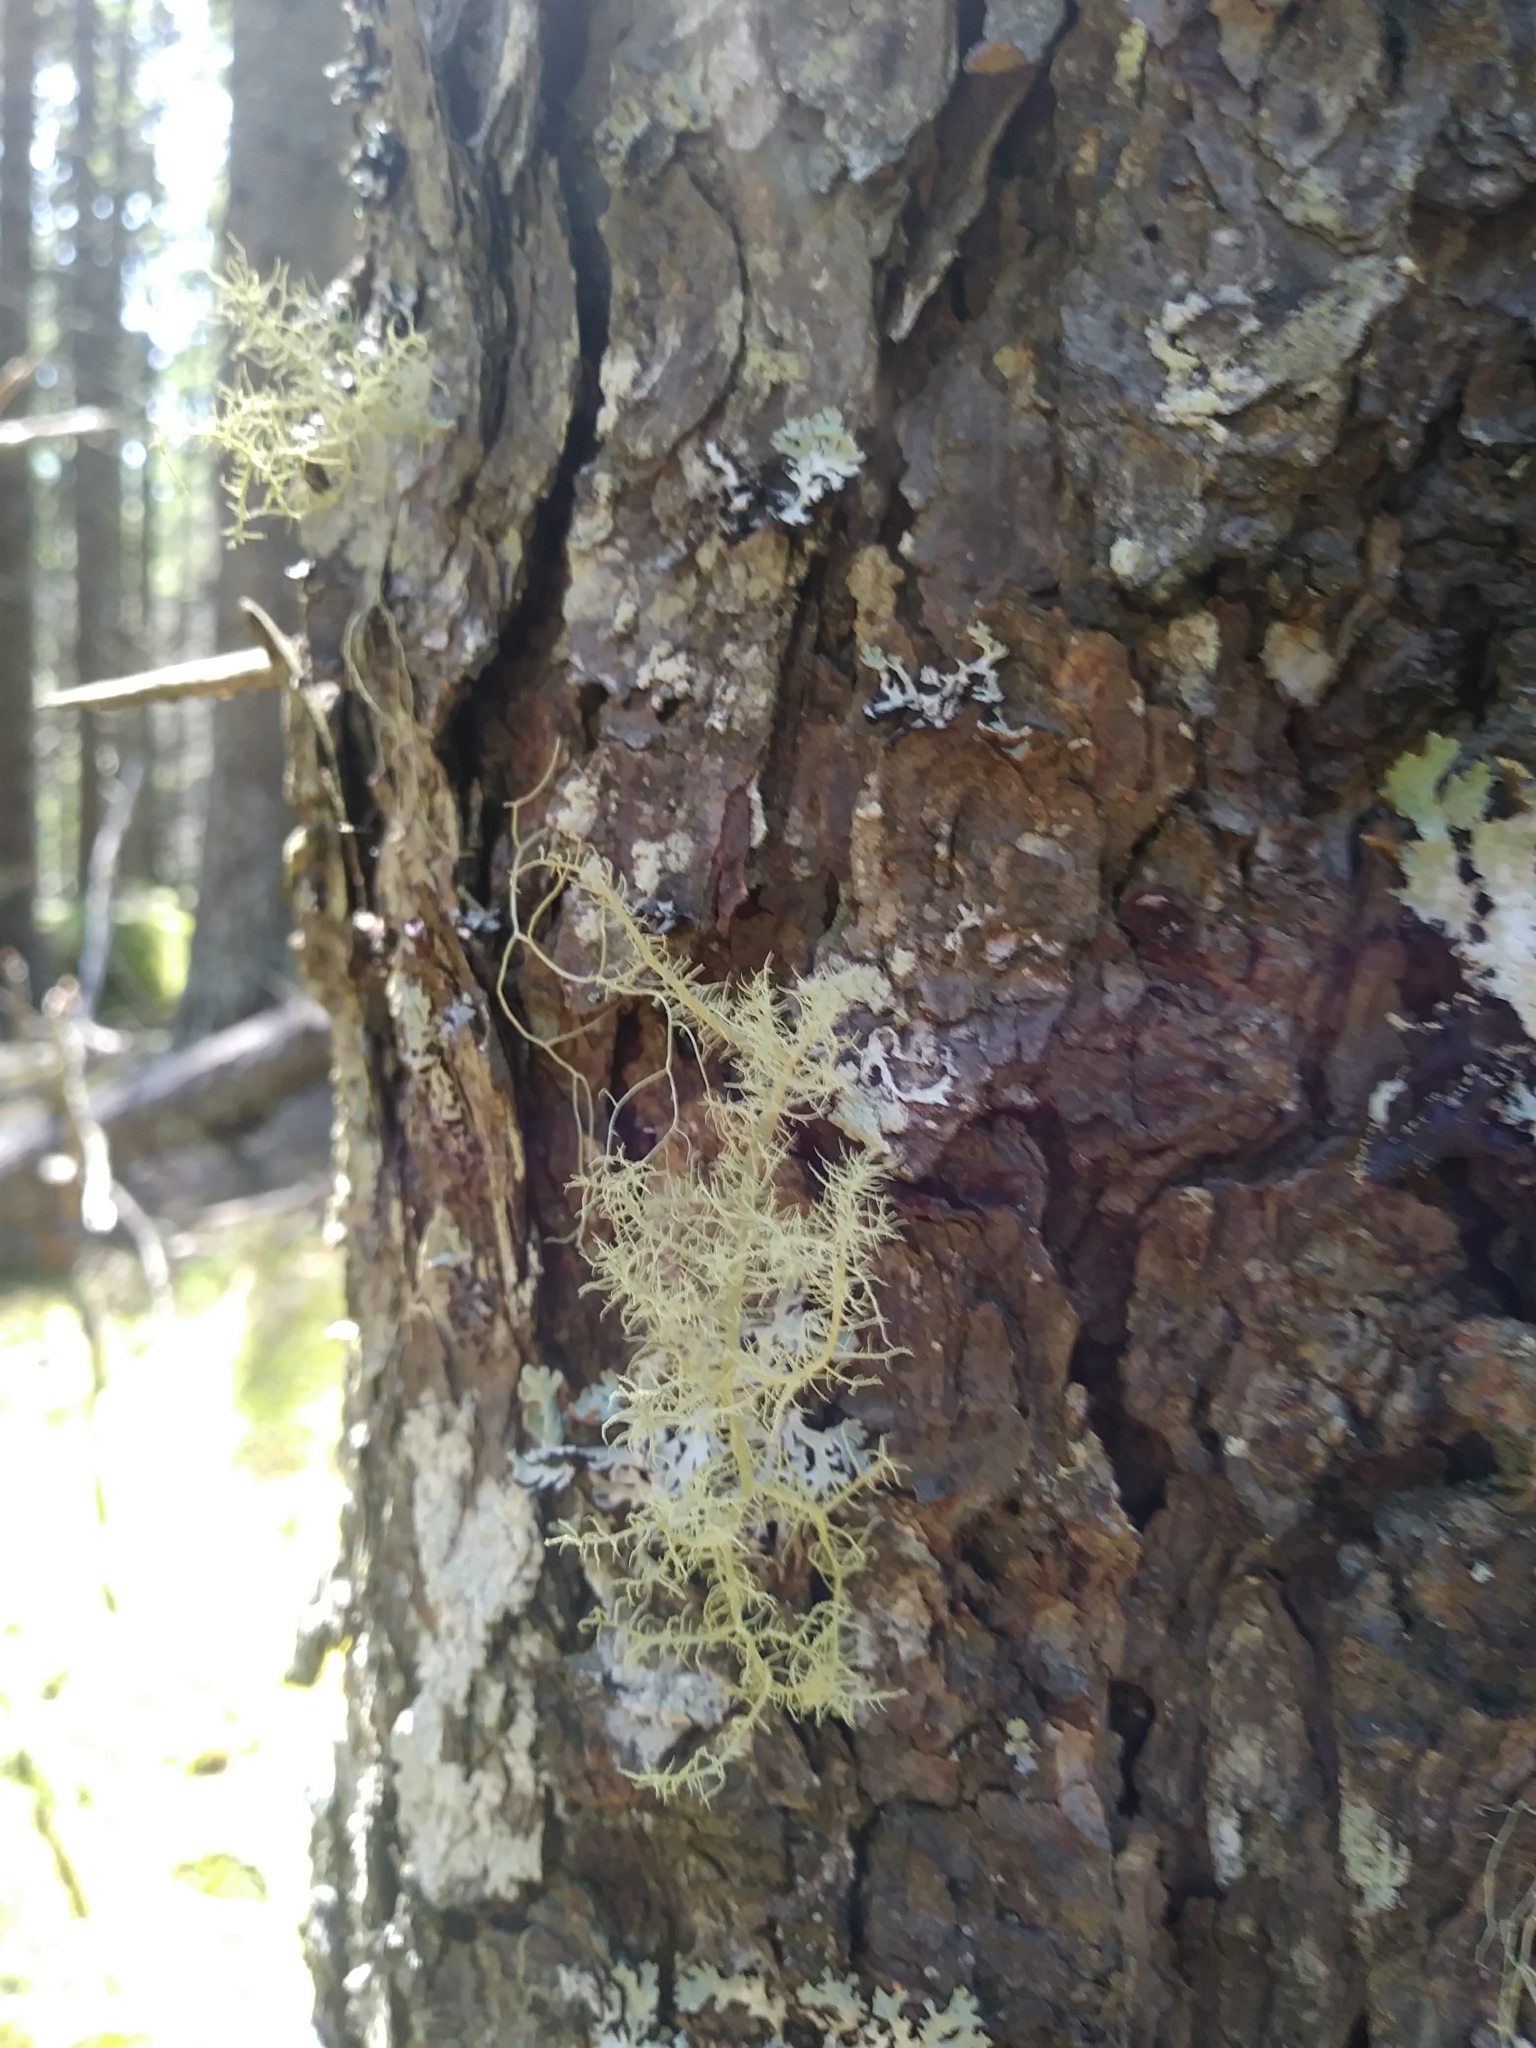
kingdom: Fungi
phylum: Ascomycota
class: Lecanoromycetes
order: Lecanorales
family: Parmeliaceae
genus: Usnea
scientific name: Usnea cornuta
